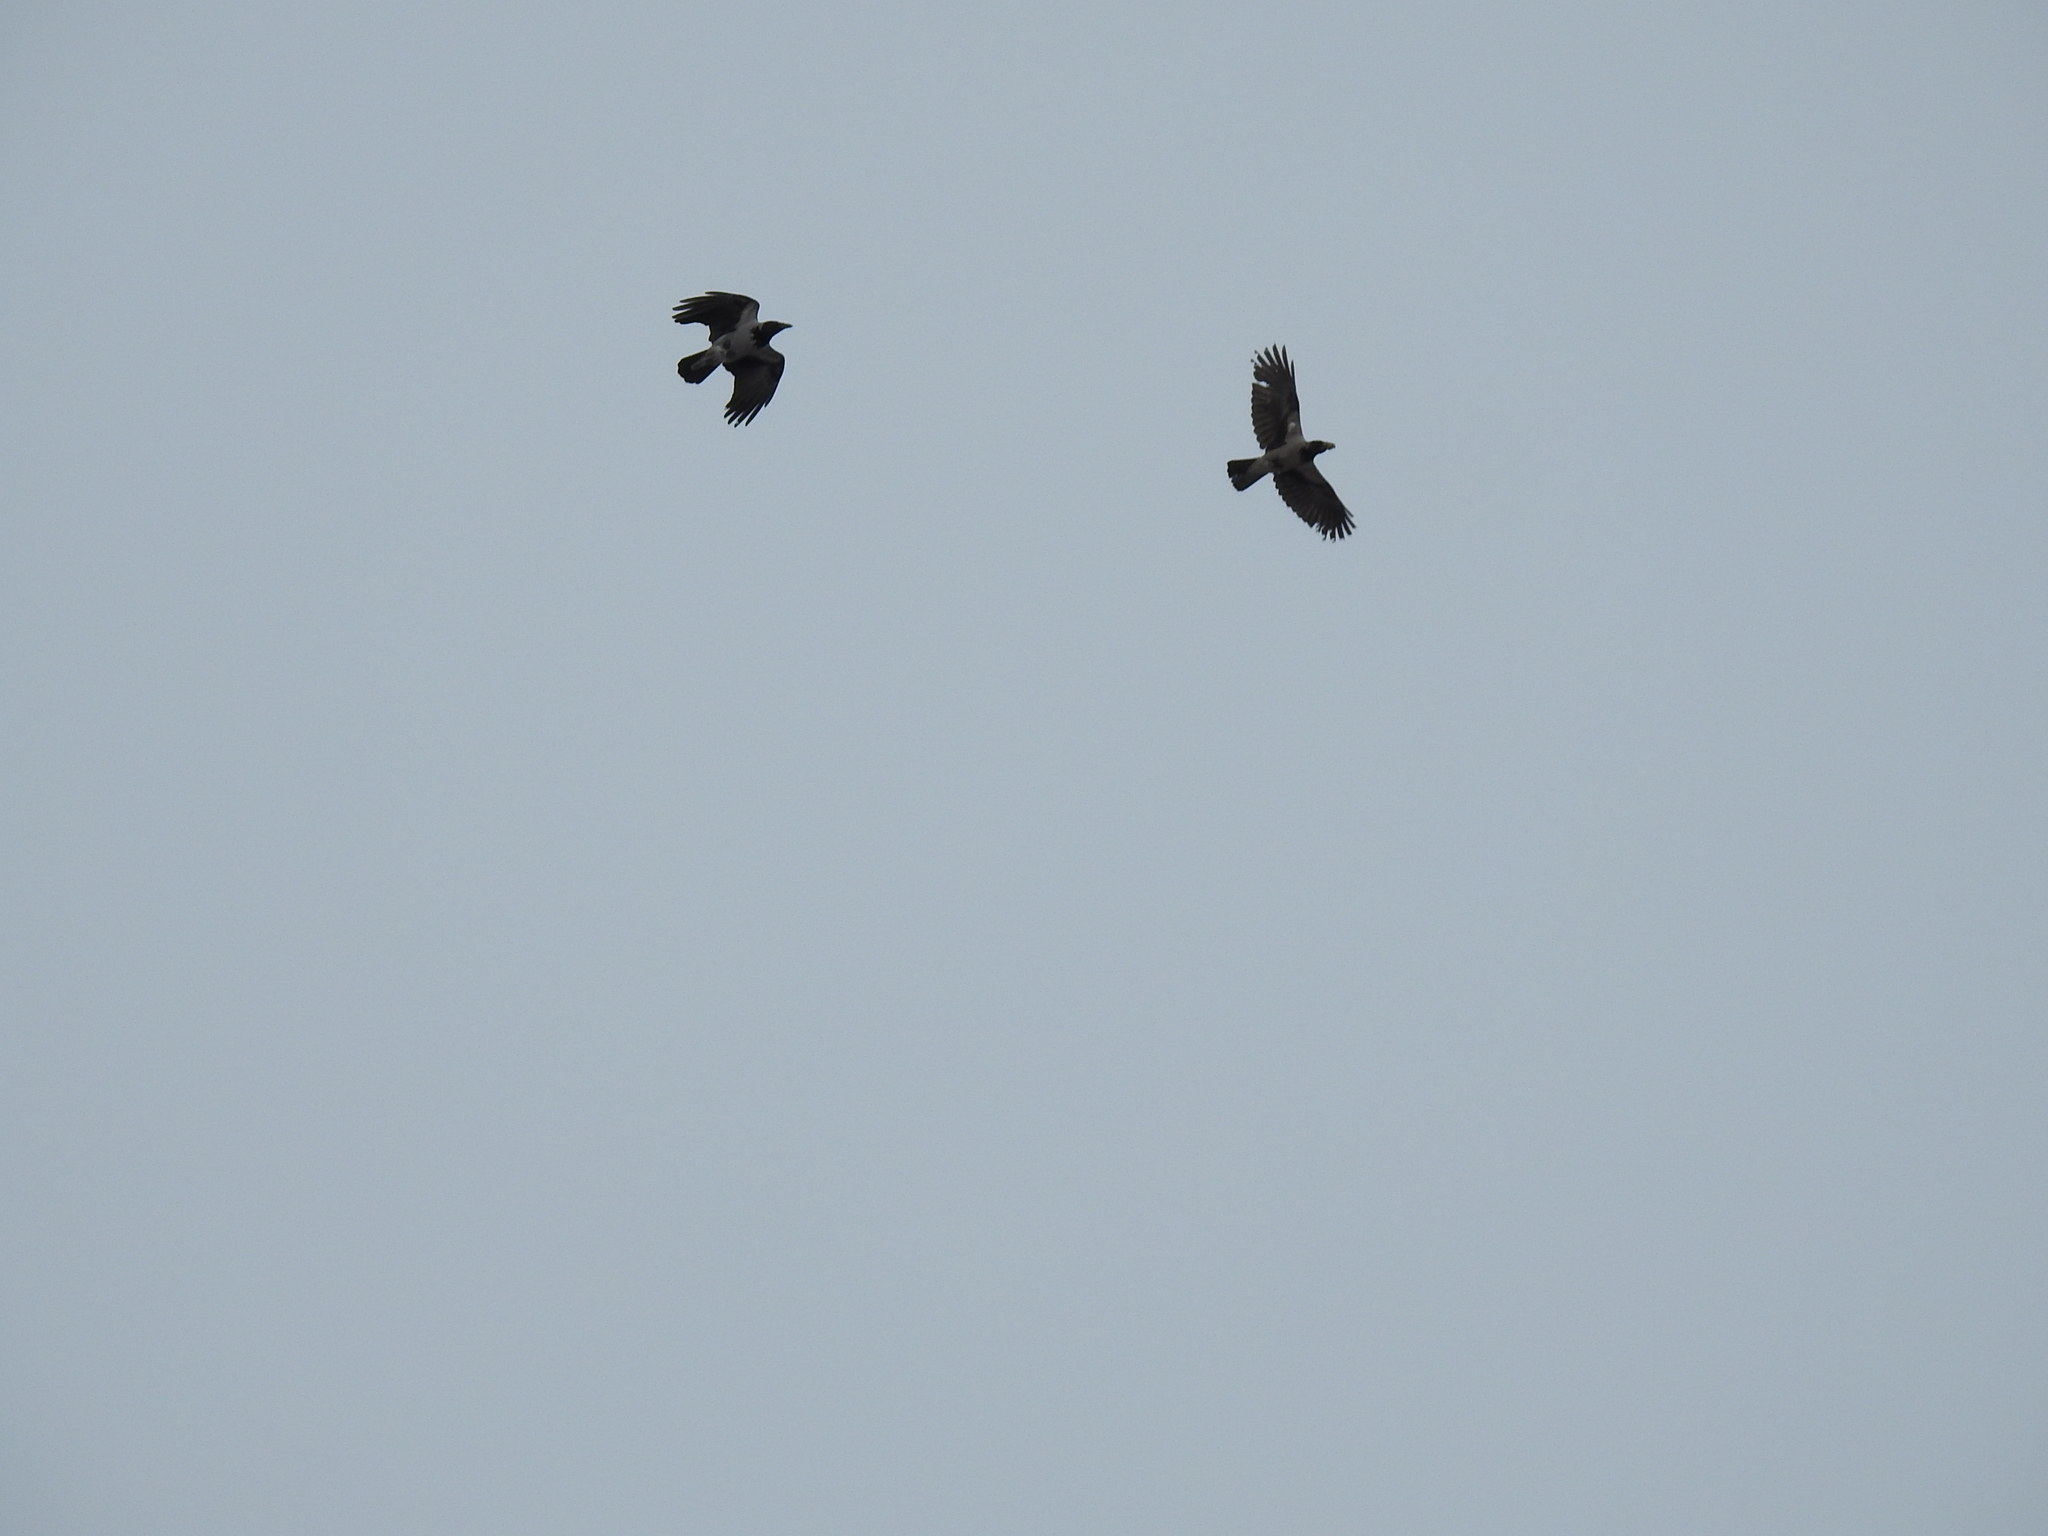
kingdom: Animalia
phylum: Chordata
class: Aves
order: Passeriformes
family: Corvidae
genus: Corvus
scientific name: Corvus cornix
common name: Hooded crow
